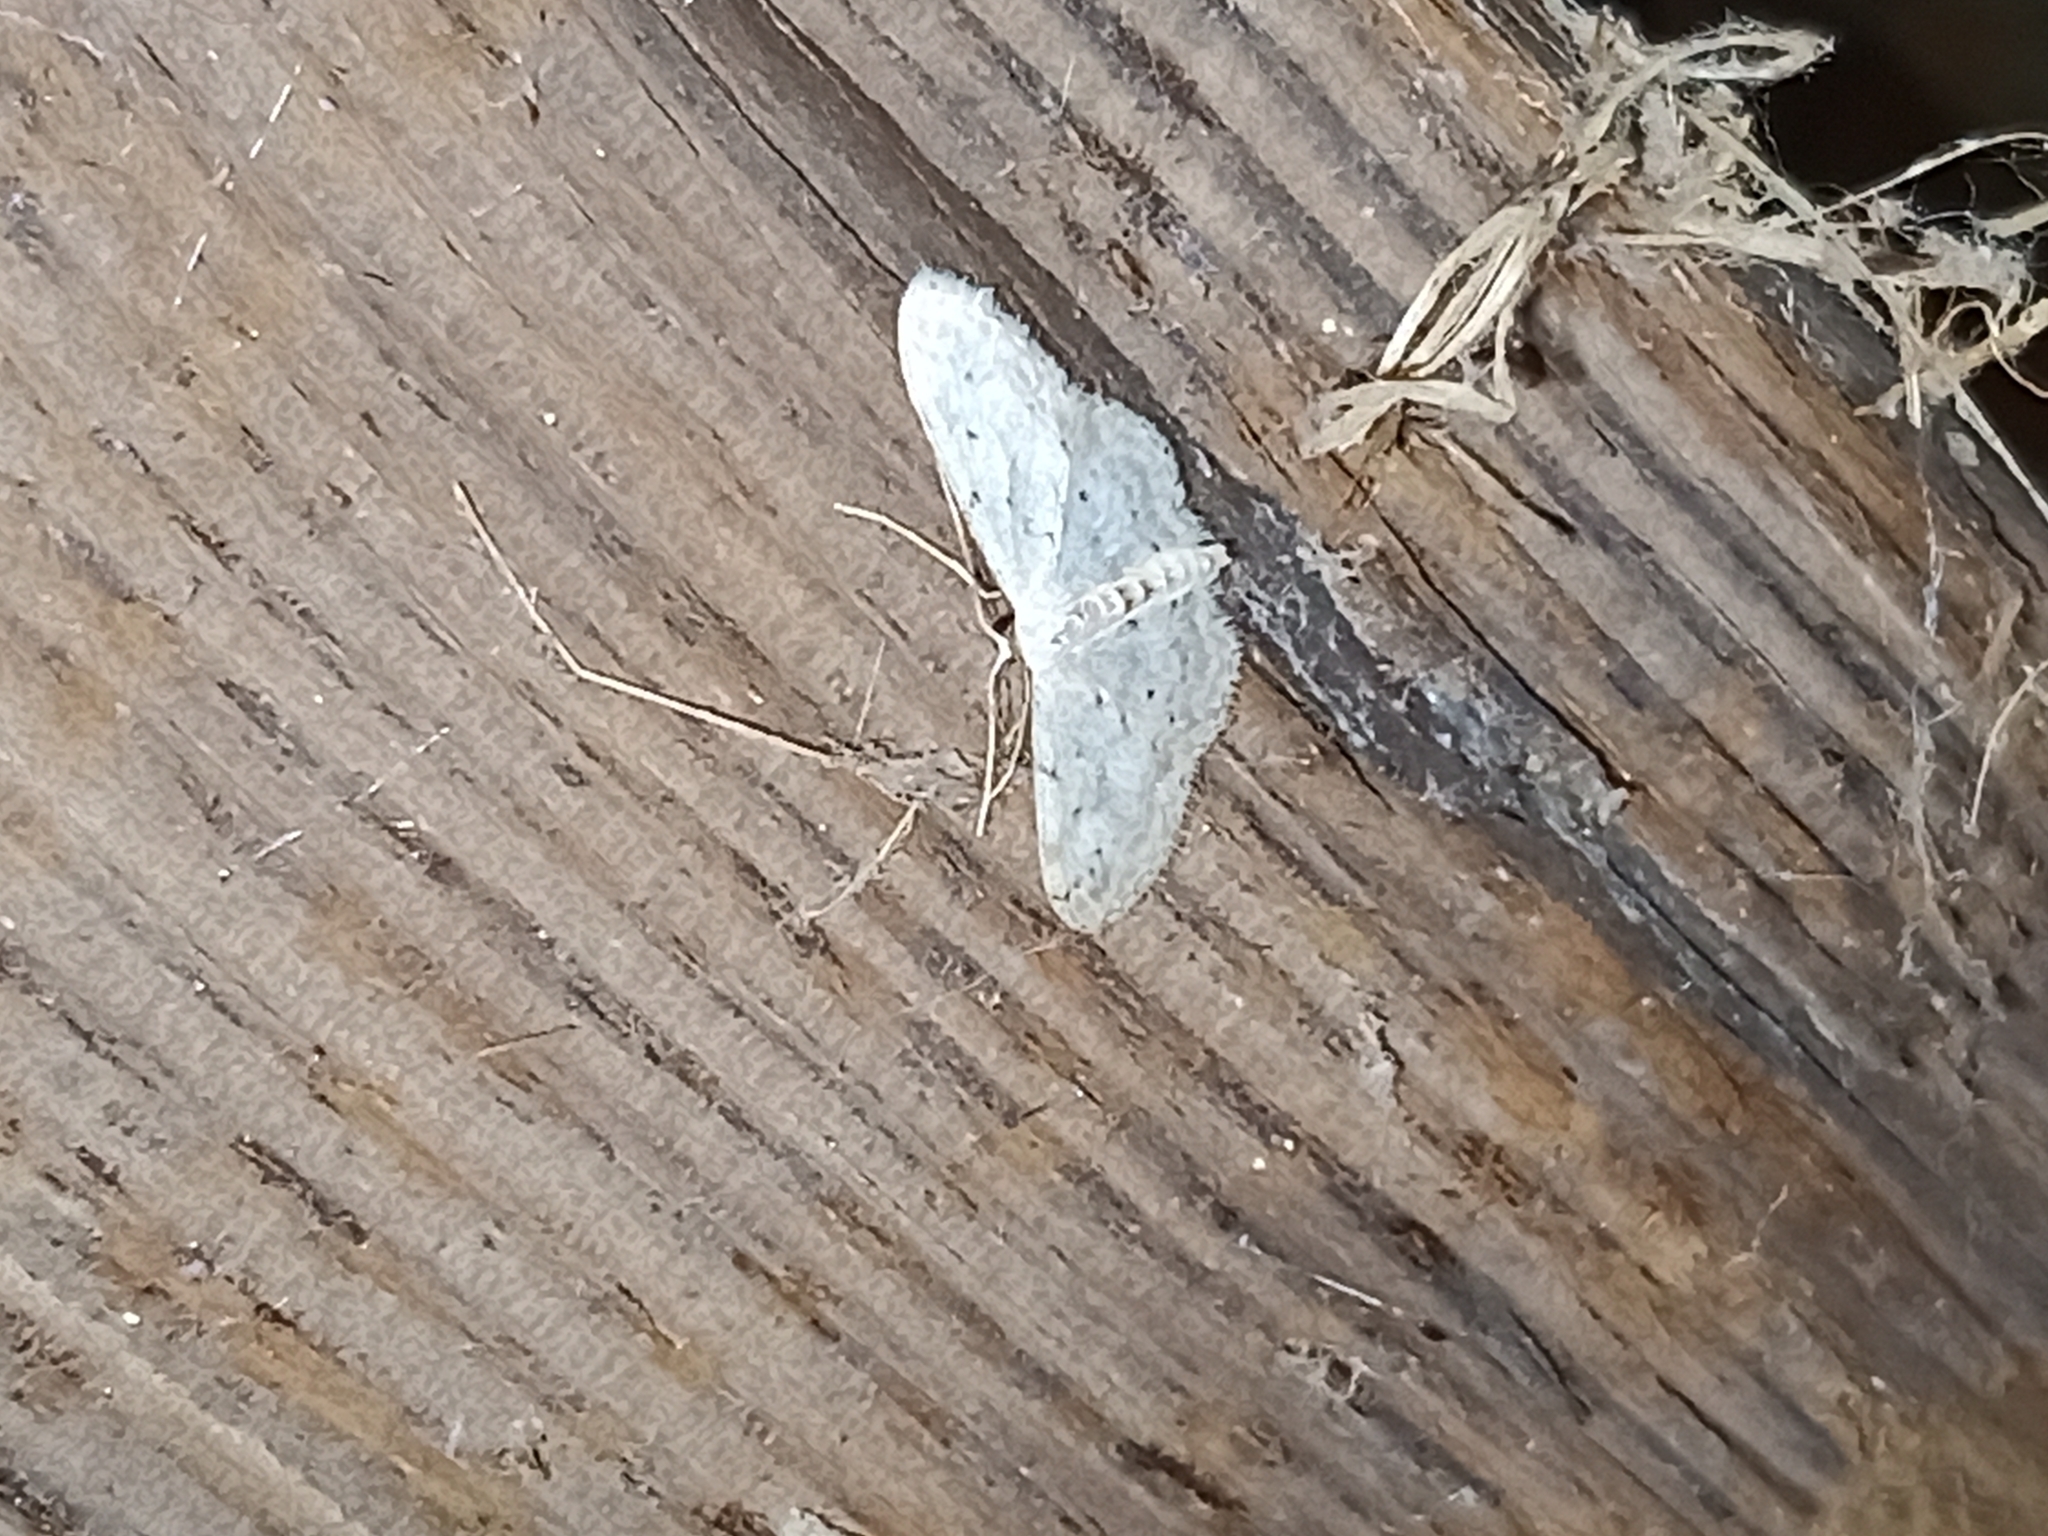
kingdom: Animalia
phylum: Arthropoda
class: Insecta
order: Lepidoptera
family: Geometridae
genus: Idaea
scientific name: Idaea seriata
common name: Small dusty wave
